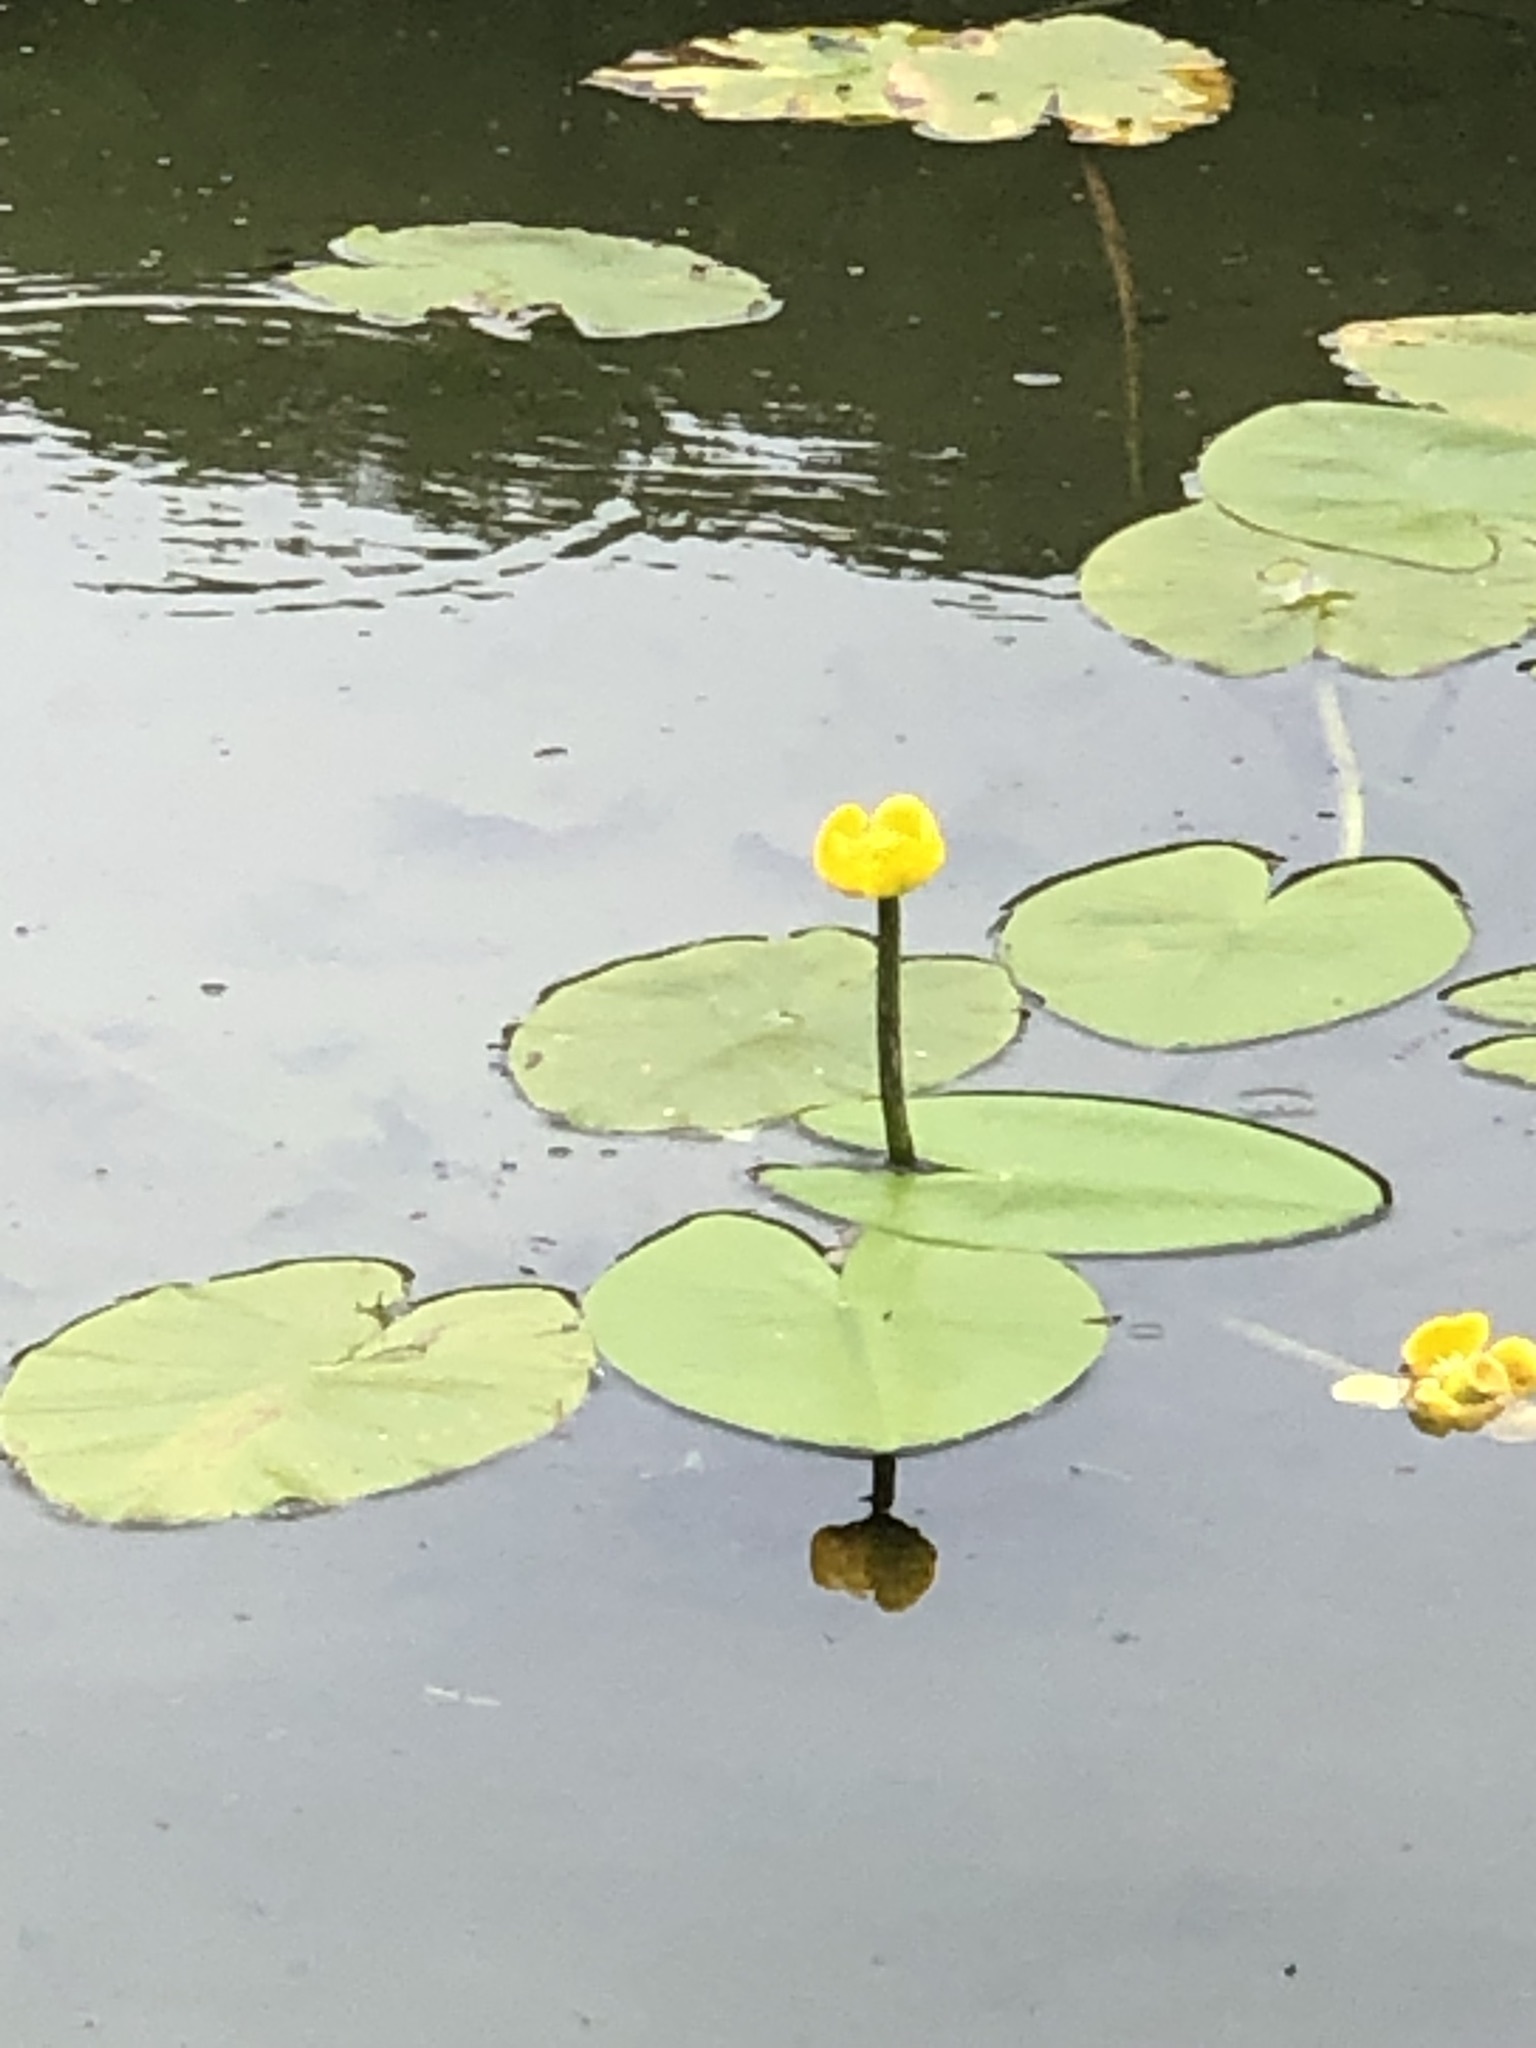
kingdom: Plantae
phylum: Tracheophyta
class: Magnoliopsida
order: Nymphaeales
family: Nymphaeaceae
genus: Nuphar
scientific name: Nuphar lutea
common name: Yellow water-lily
